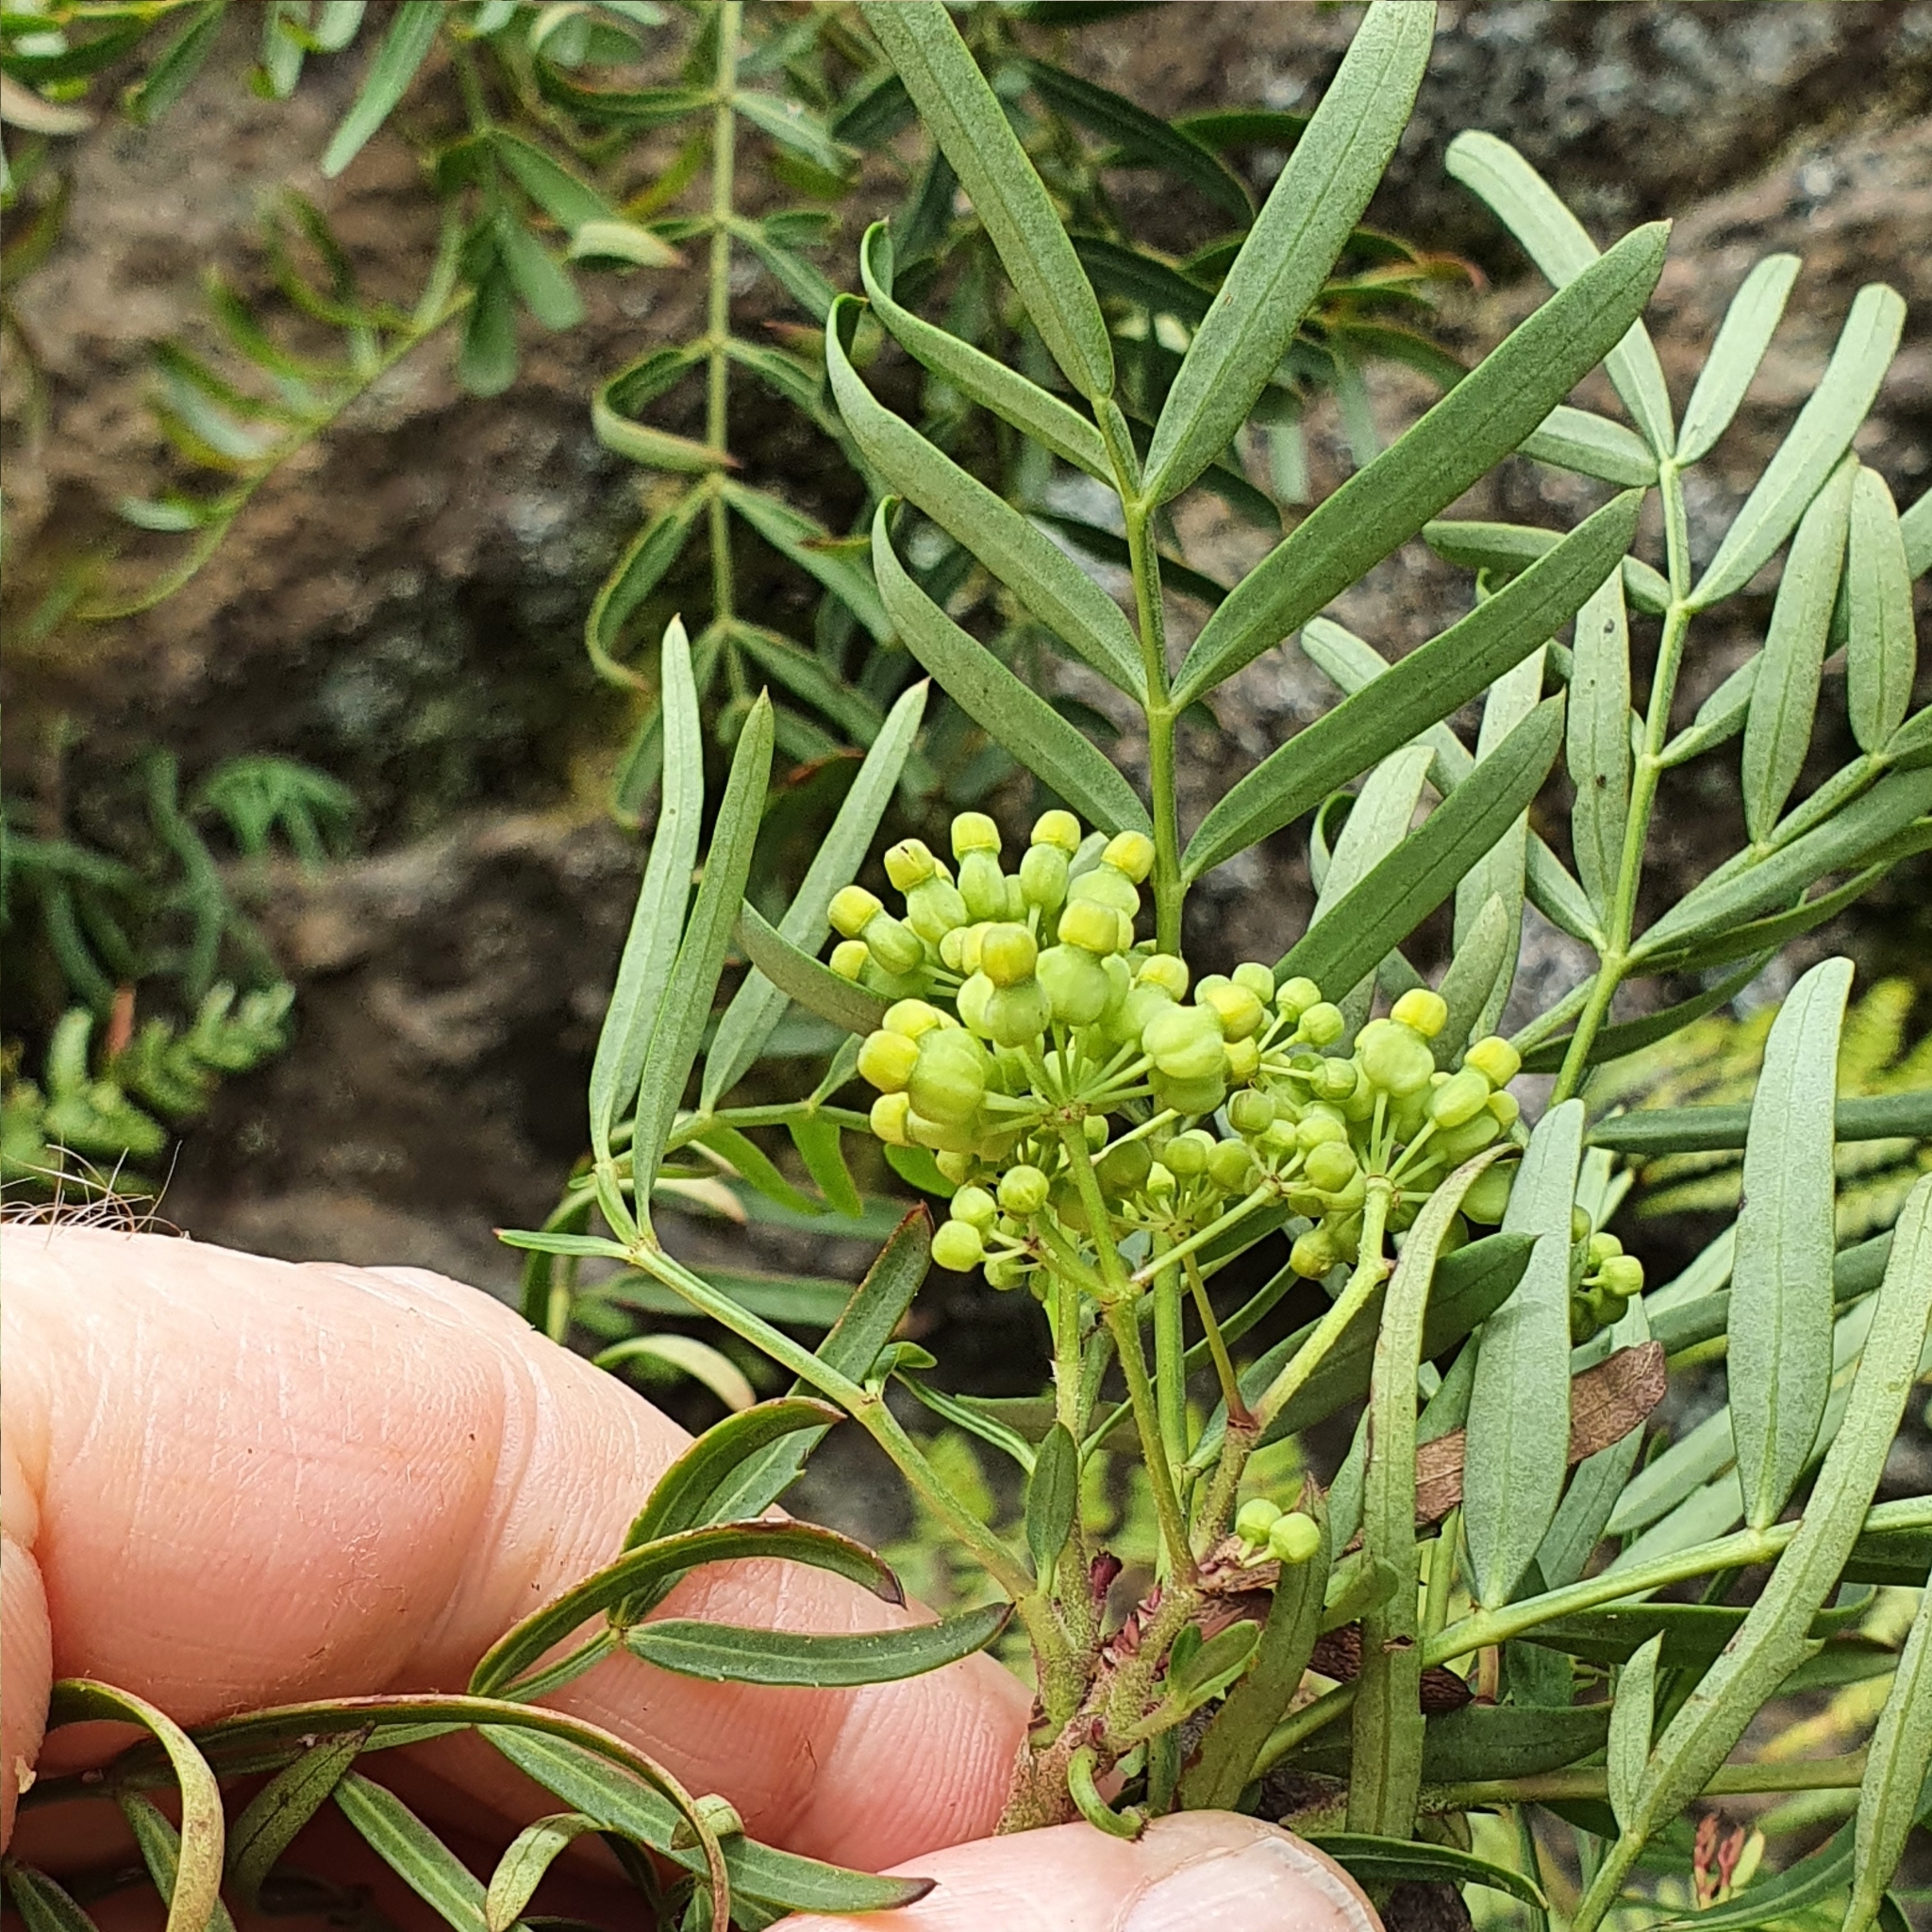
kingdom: Plantae
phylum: Tracheophyta
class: Magnoliopsida
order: Apiales
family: Araliaceae
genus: Polyscias
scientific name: Polyscias sambucifolia
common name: Elderberry-ash
